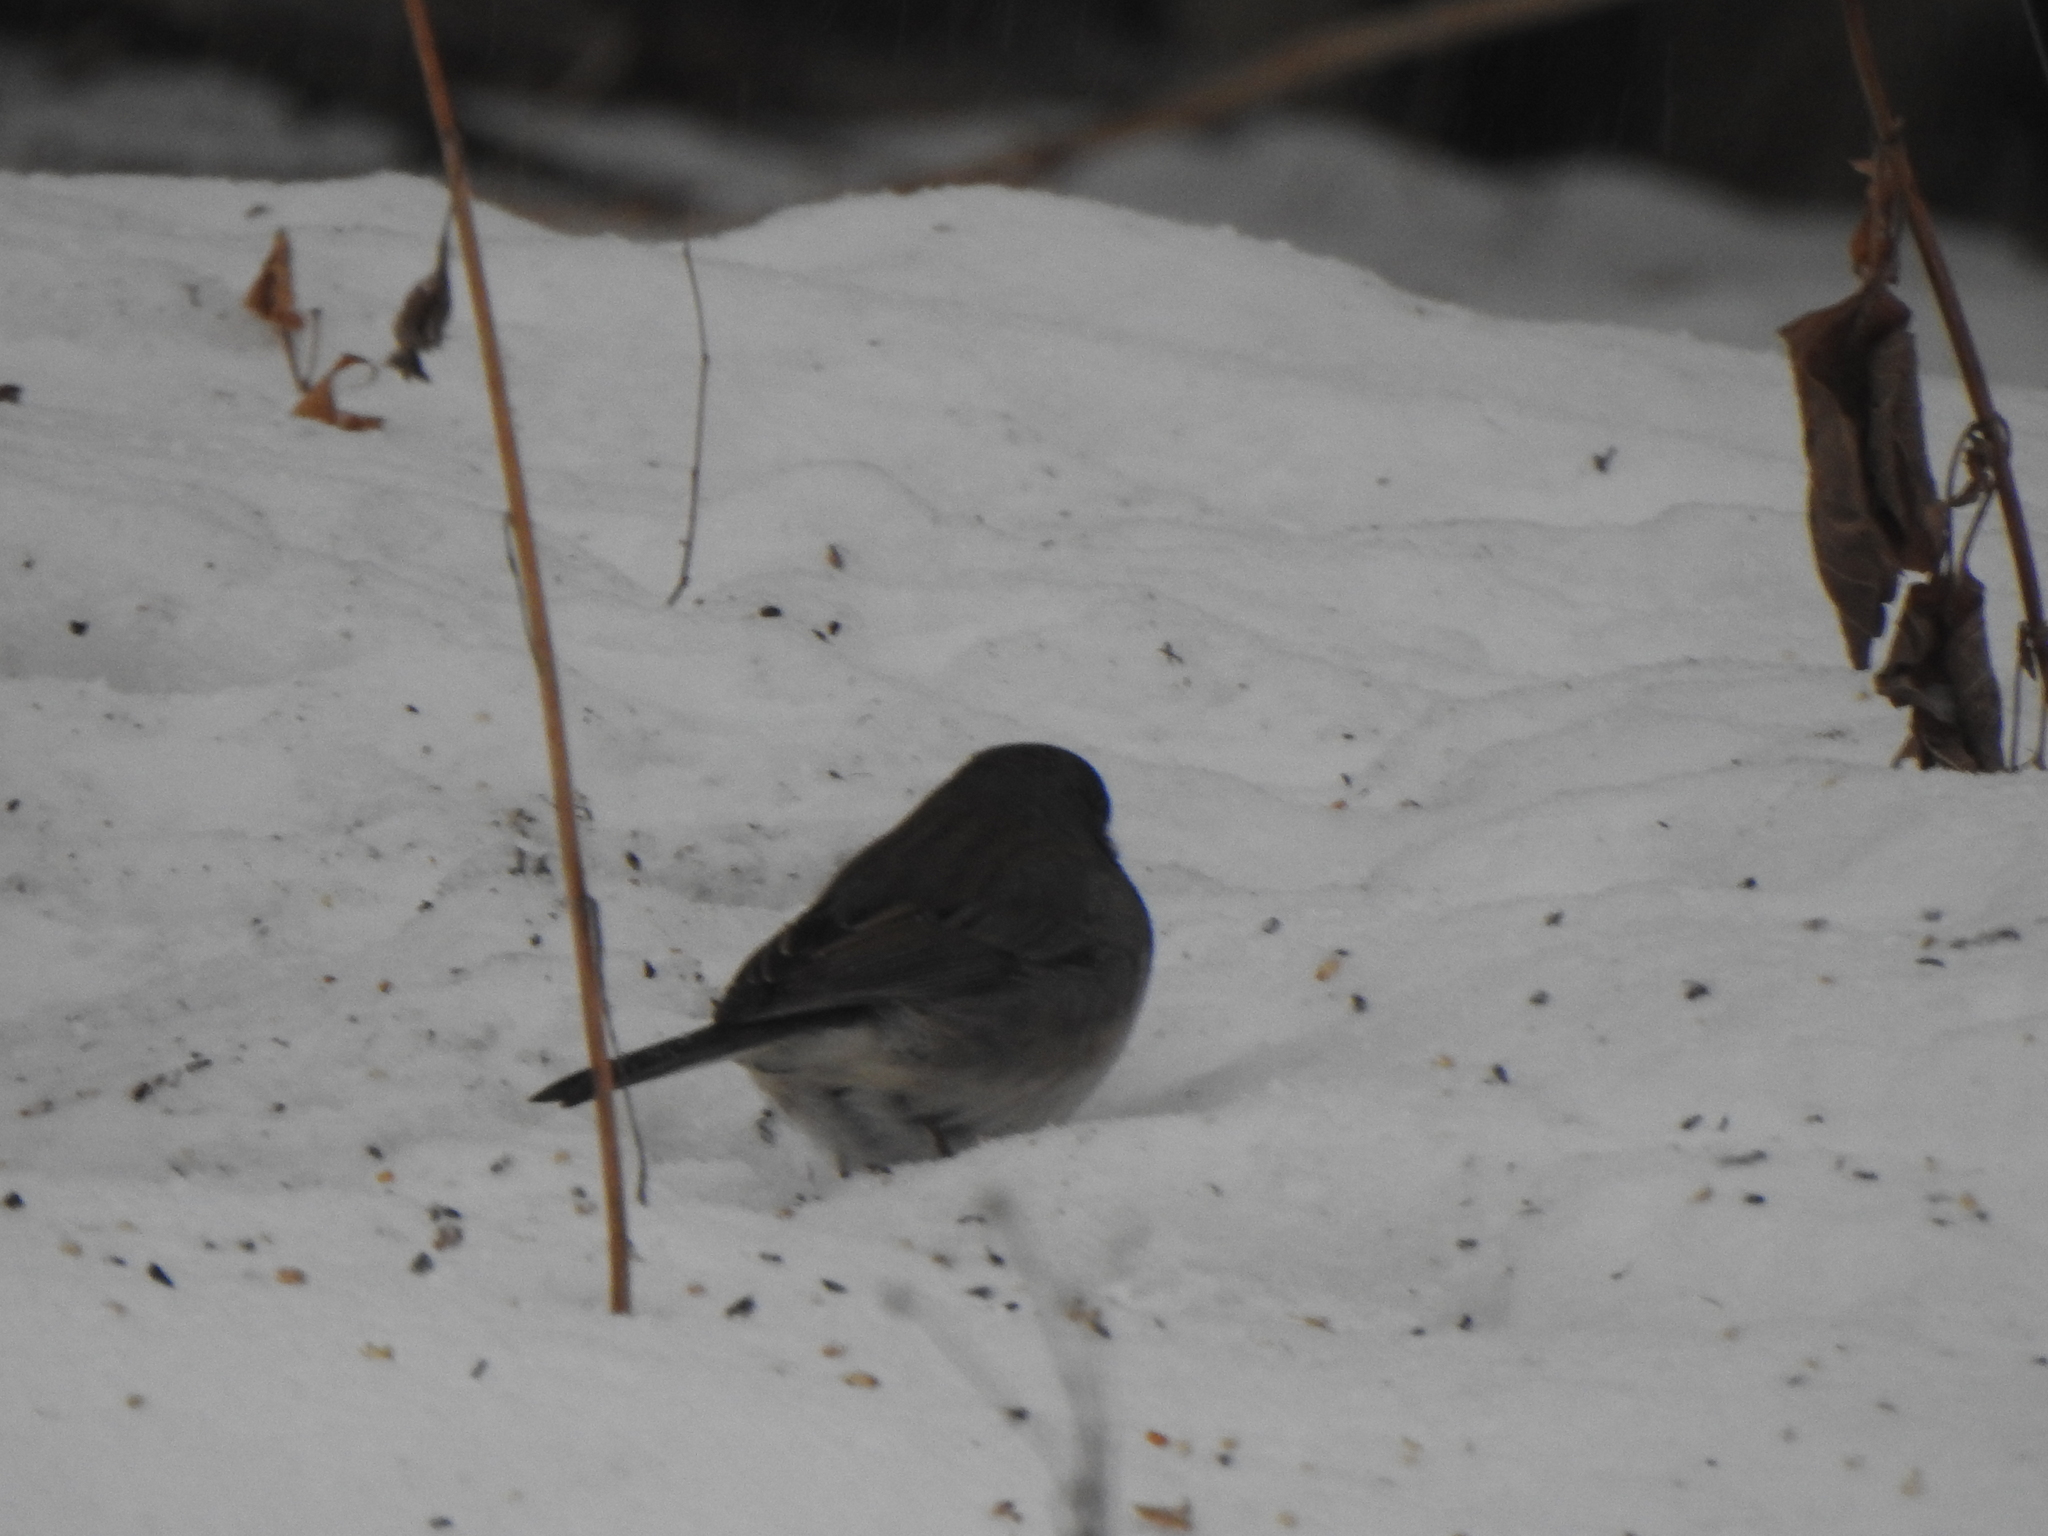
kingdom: Animalia
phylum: Chordata
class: Aves
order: Passeriformes
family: Passerellidae
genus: Junco
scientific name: Junco hyemalis
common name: Dark-eyed junco
